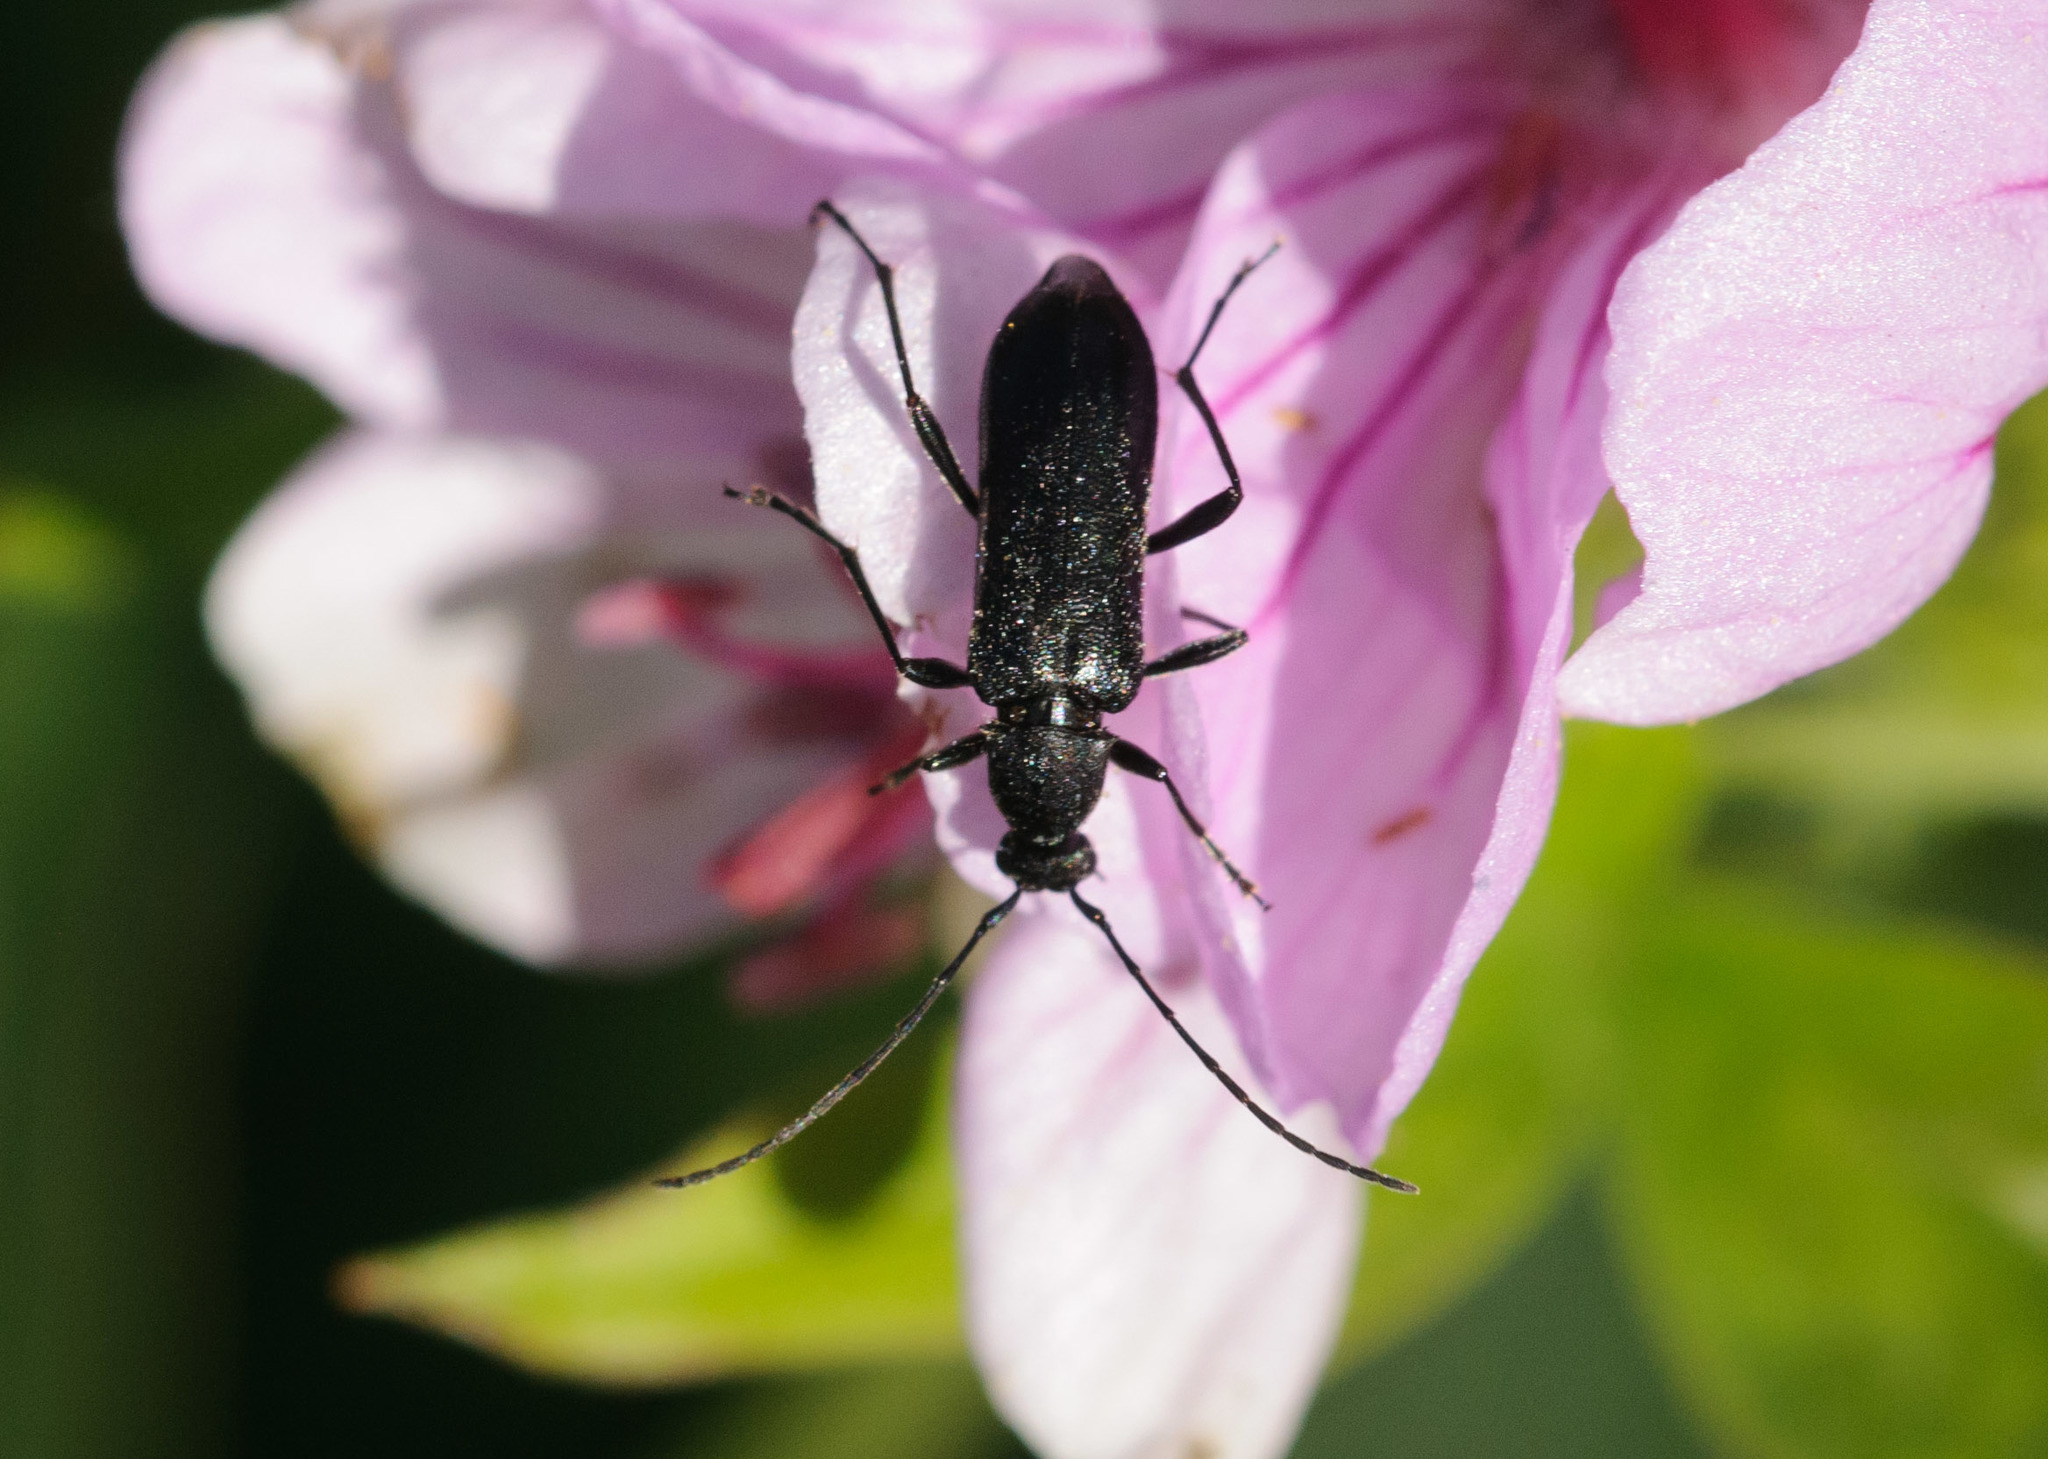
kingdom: Animalia
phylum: Arthropoda
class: Insecta
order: Coleoptera
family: Cerambycidae
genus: Grammoptera
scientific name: Grammoptera subargentata
